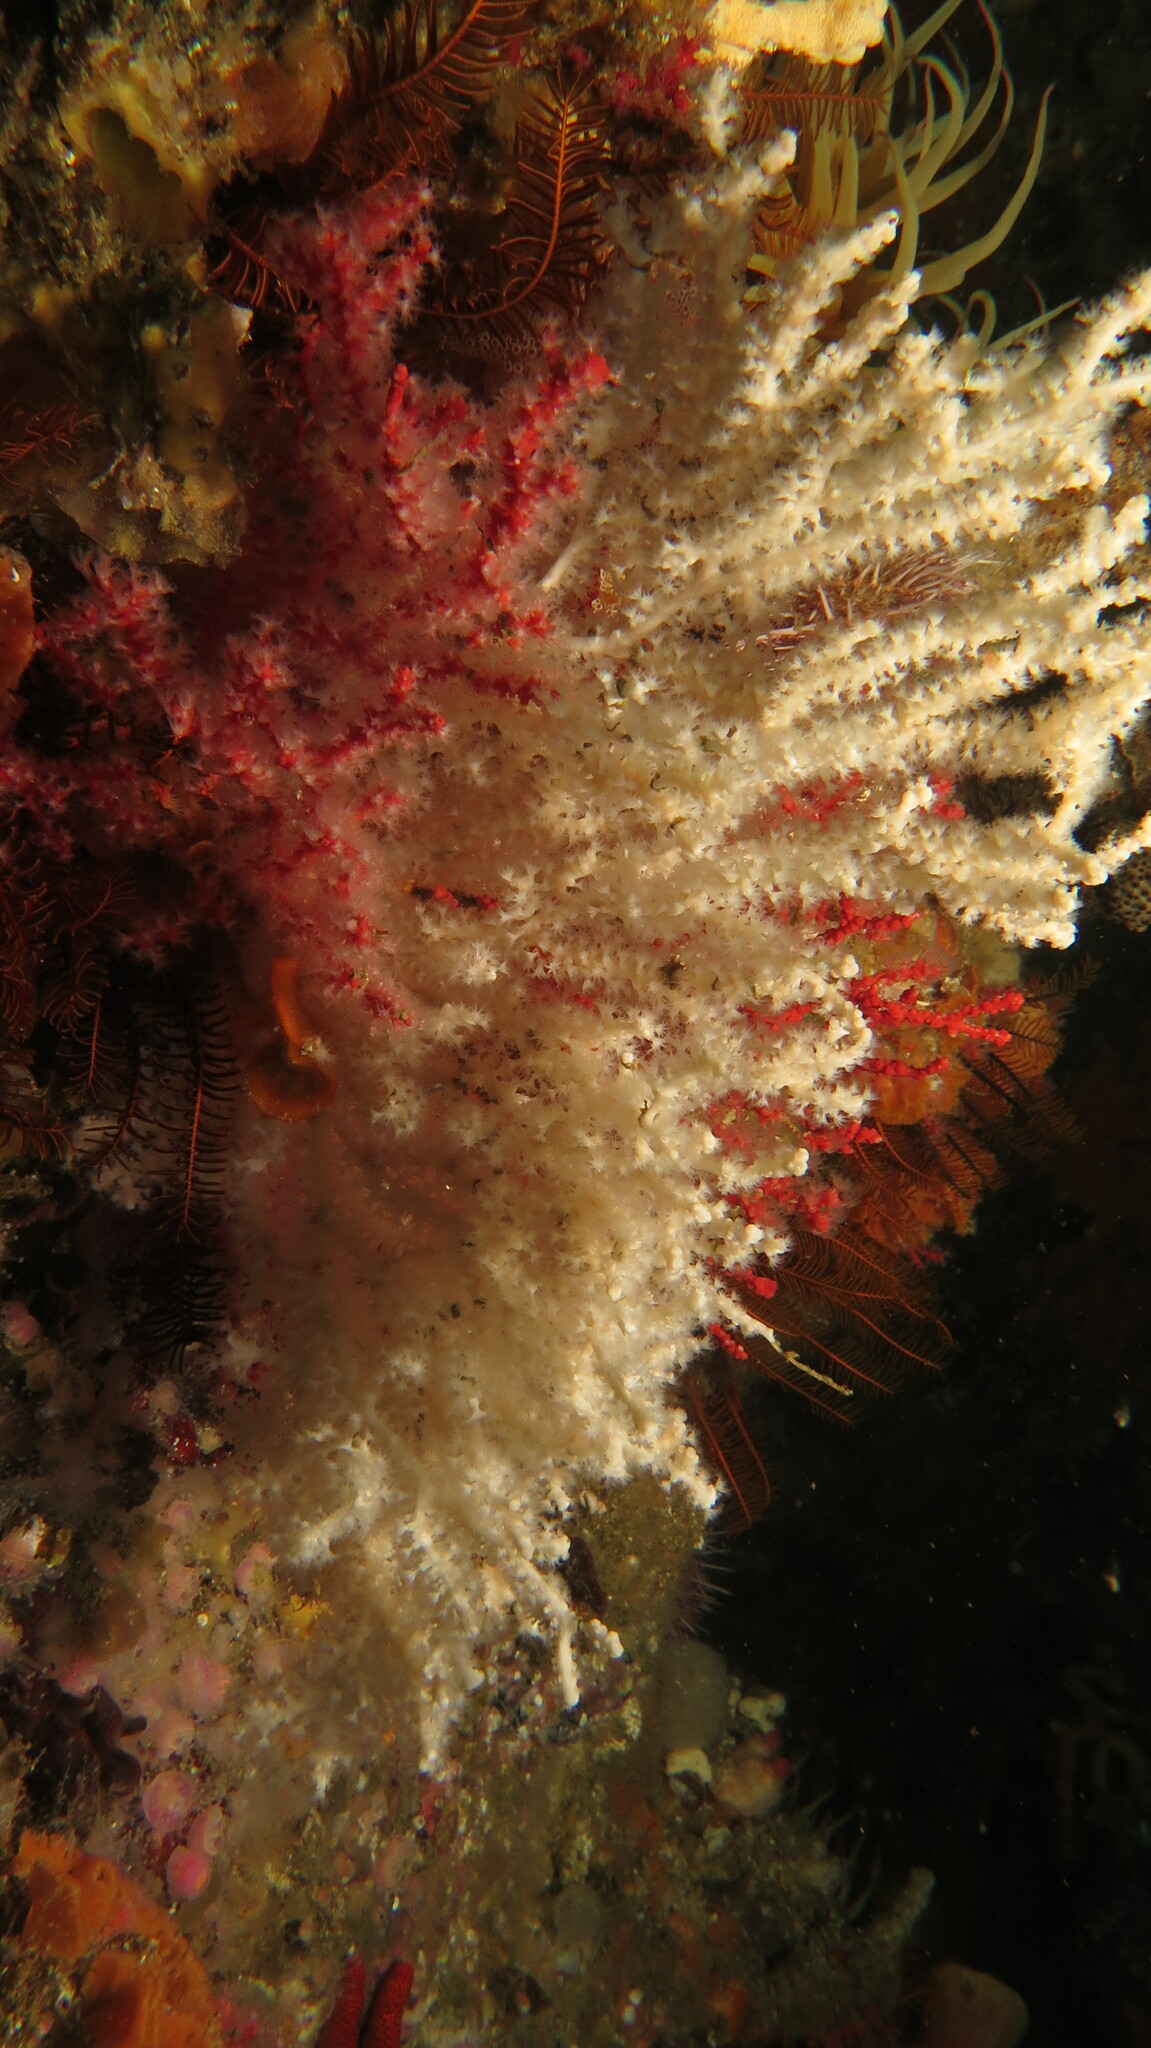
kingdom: Animalia
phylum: Cnidaria
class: Anthozoa
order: Malacalcyonacea
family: Melithaeidae
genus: Melithaea
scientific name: Melithaea rubra
